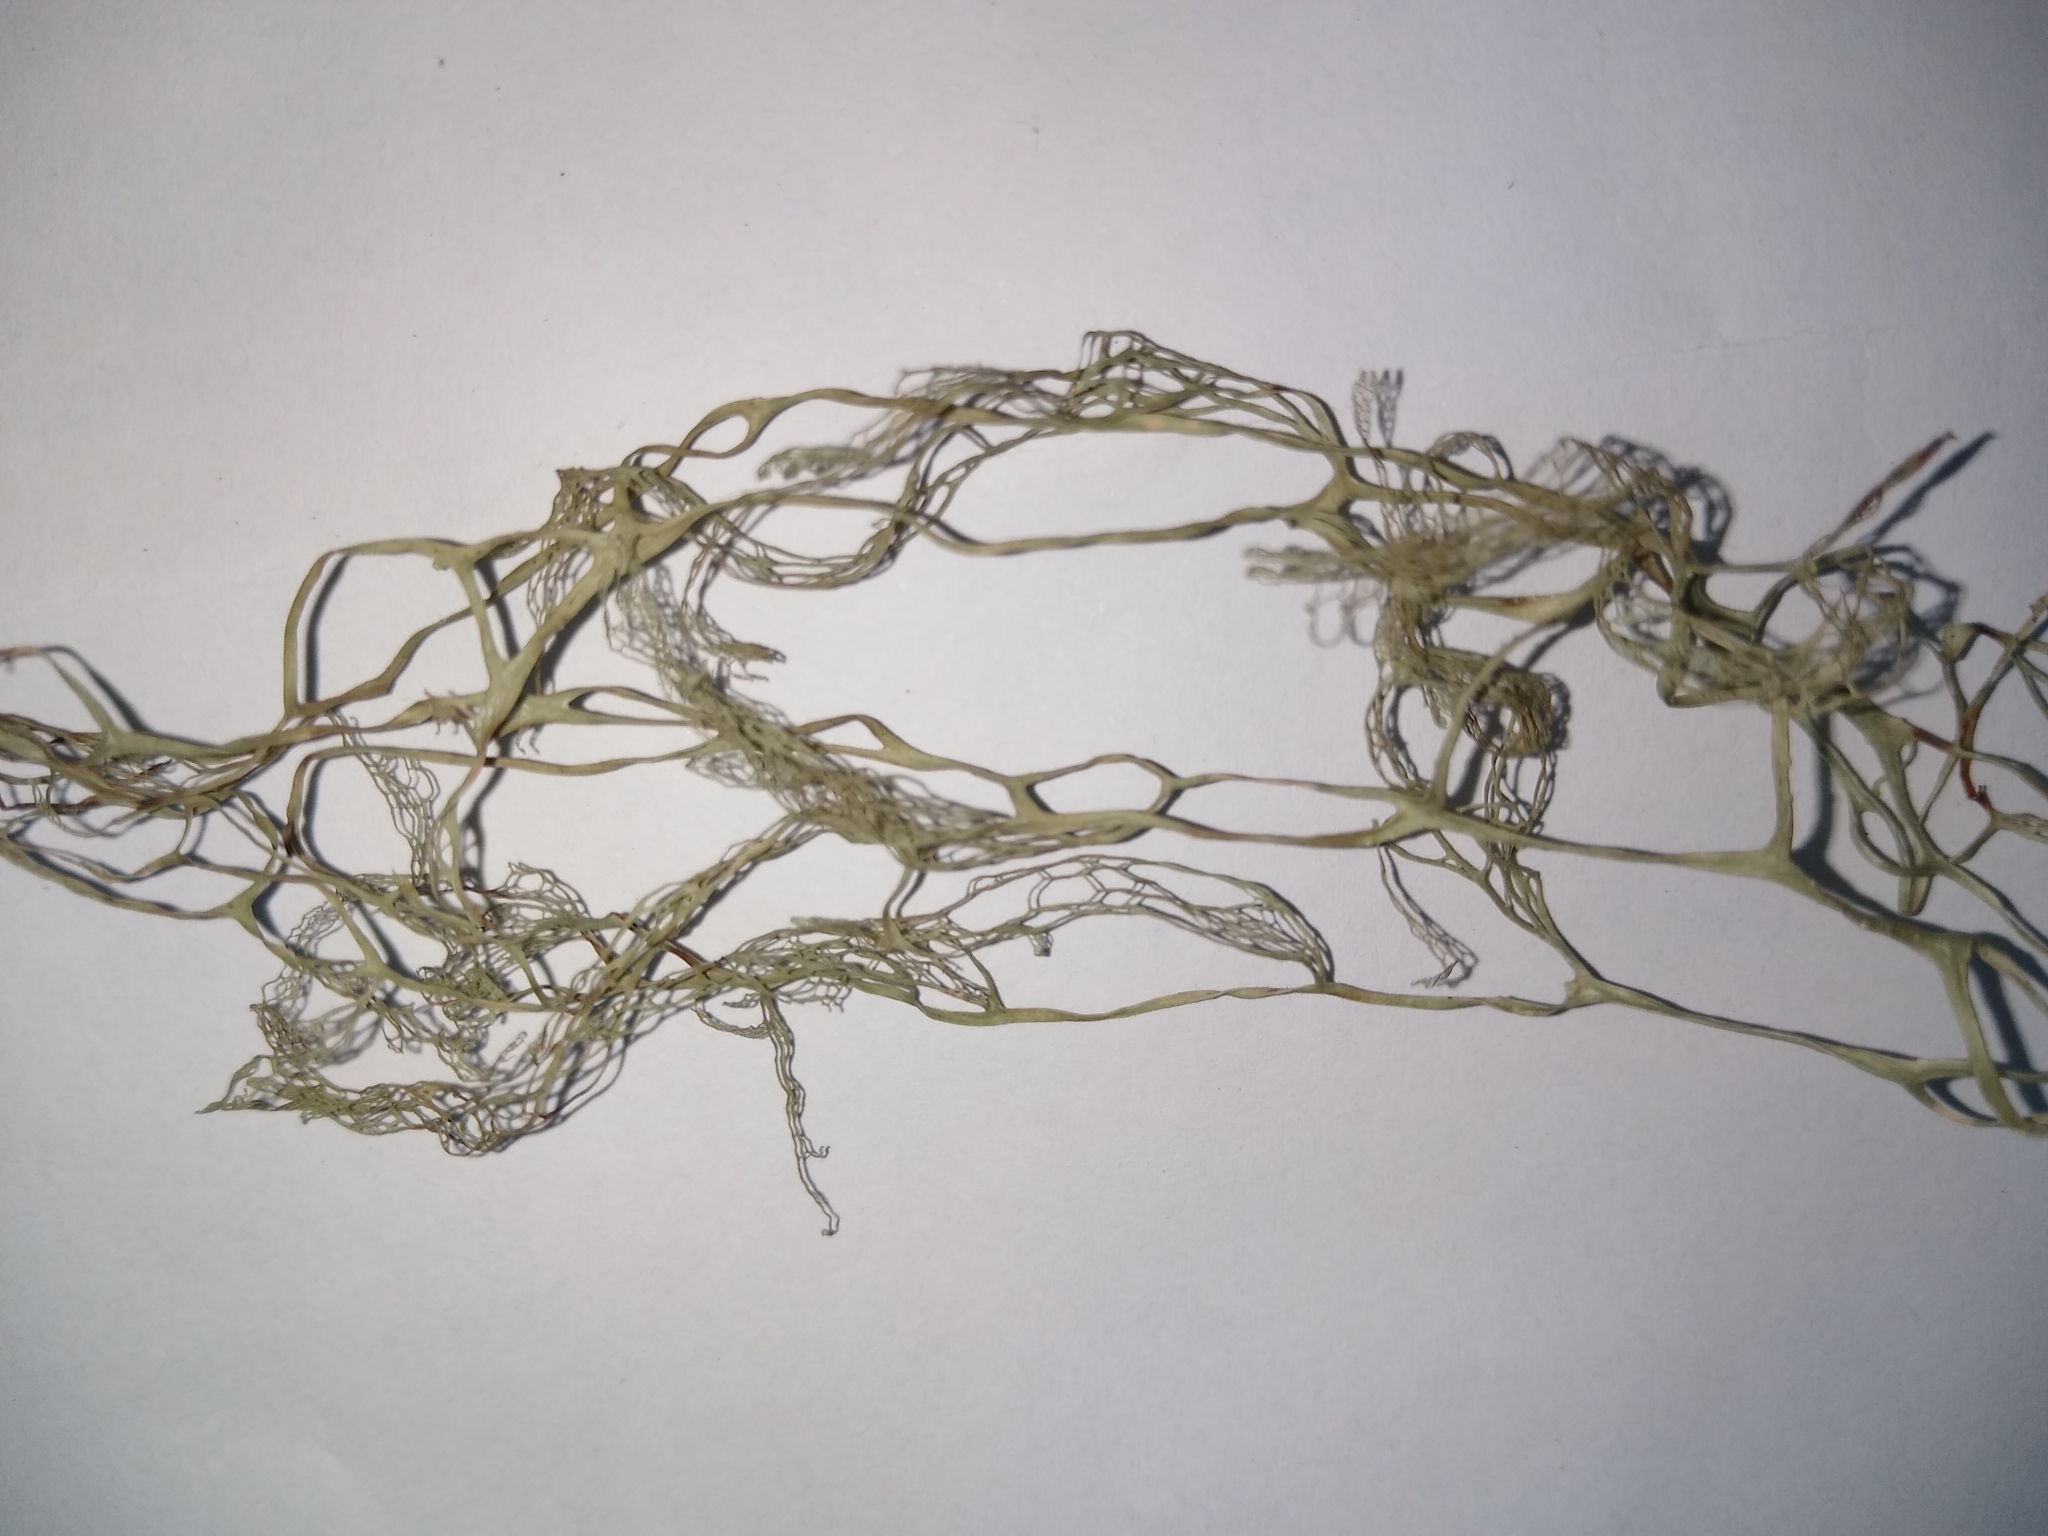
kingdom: Fungi
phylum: Ascomycota
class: Lecanoromycetes
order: Lecanorales
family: Ramalinaceae
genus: Ramalina
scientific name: Ramalina menziesii
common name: Lace lichen
